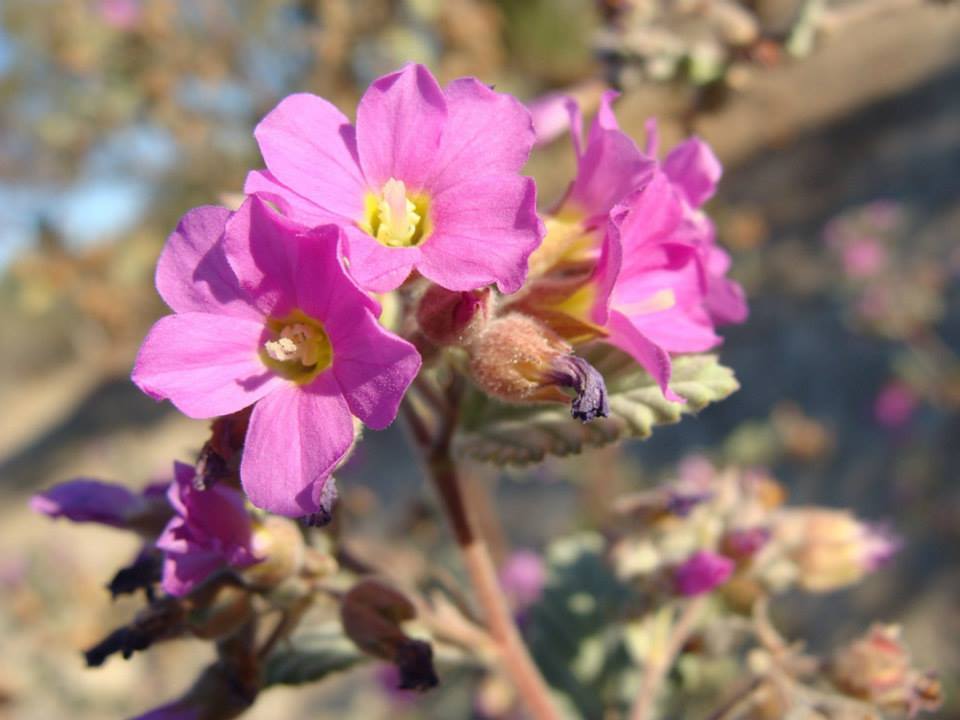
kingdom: Plantae
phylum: Tracheophyta
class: Magnoliopsida
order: Malvales
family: Malvaceae
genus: Melochia
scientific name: Melochia tomentosa
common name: Black torch
